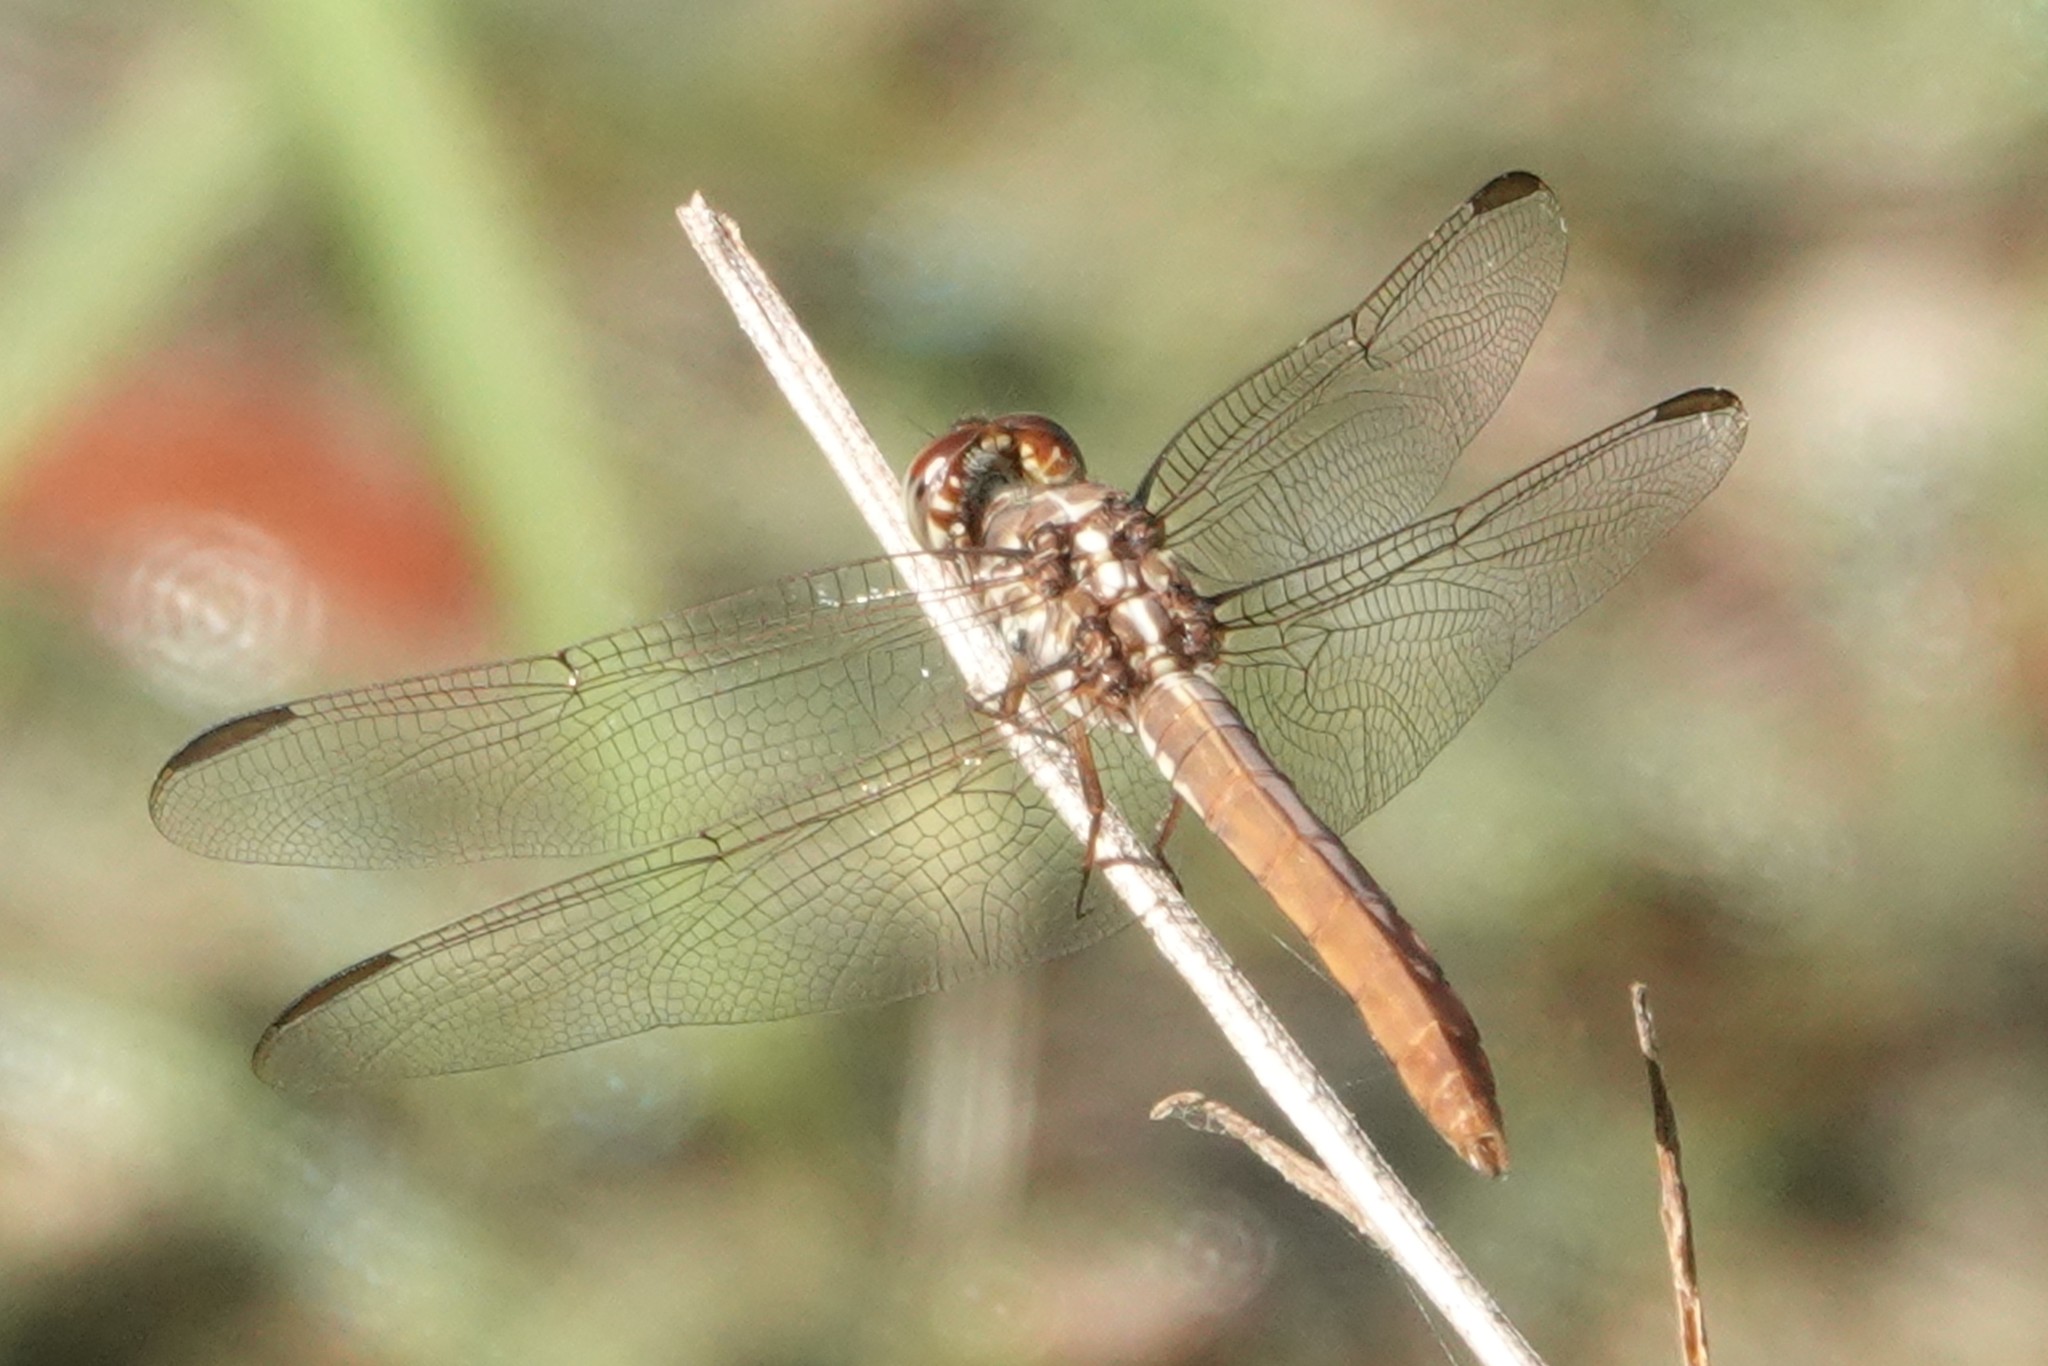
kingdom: Animalia
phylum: Arthropoda
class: Insecta
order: Odonata
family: Libellulidae
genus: Orthemis
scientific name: Orthemis ferruginea
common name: Roseate skimmer
